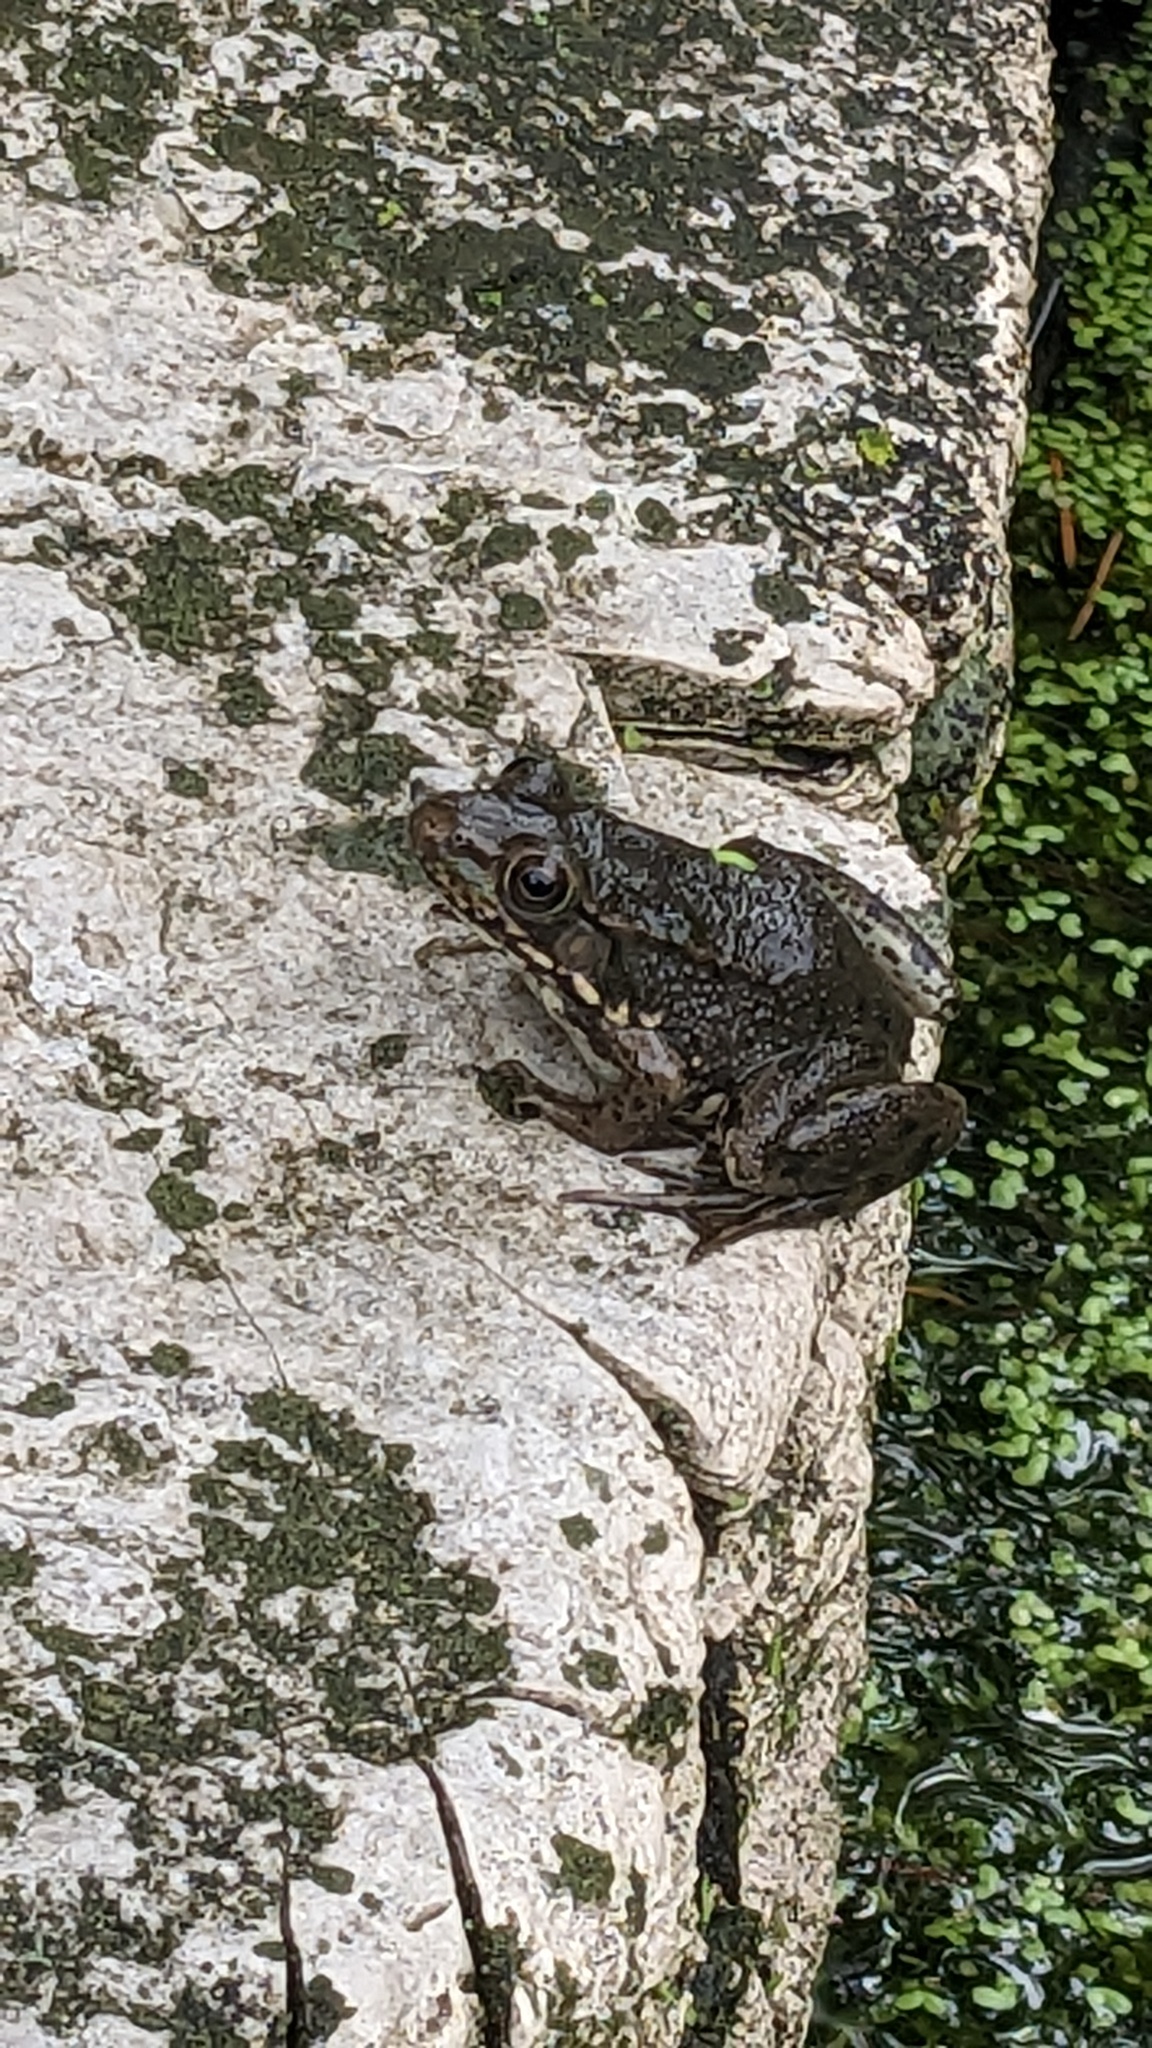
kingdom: Animalia
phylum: Chordata
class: Amphibia
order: Anura
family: Ranidae
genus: Lithobates
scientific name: Lithobates clamitans
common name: Green frog
